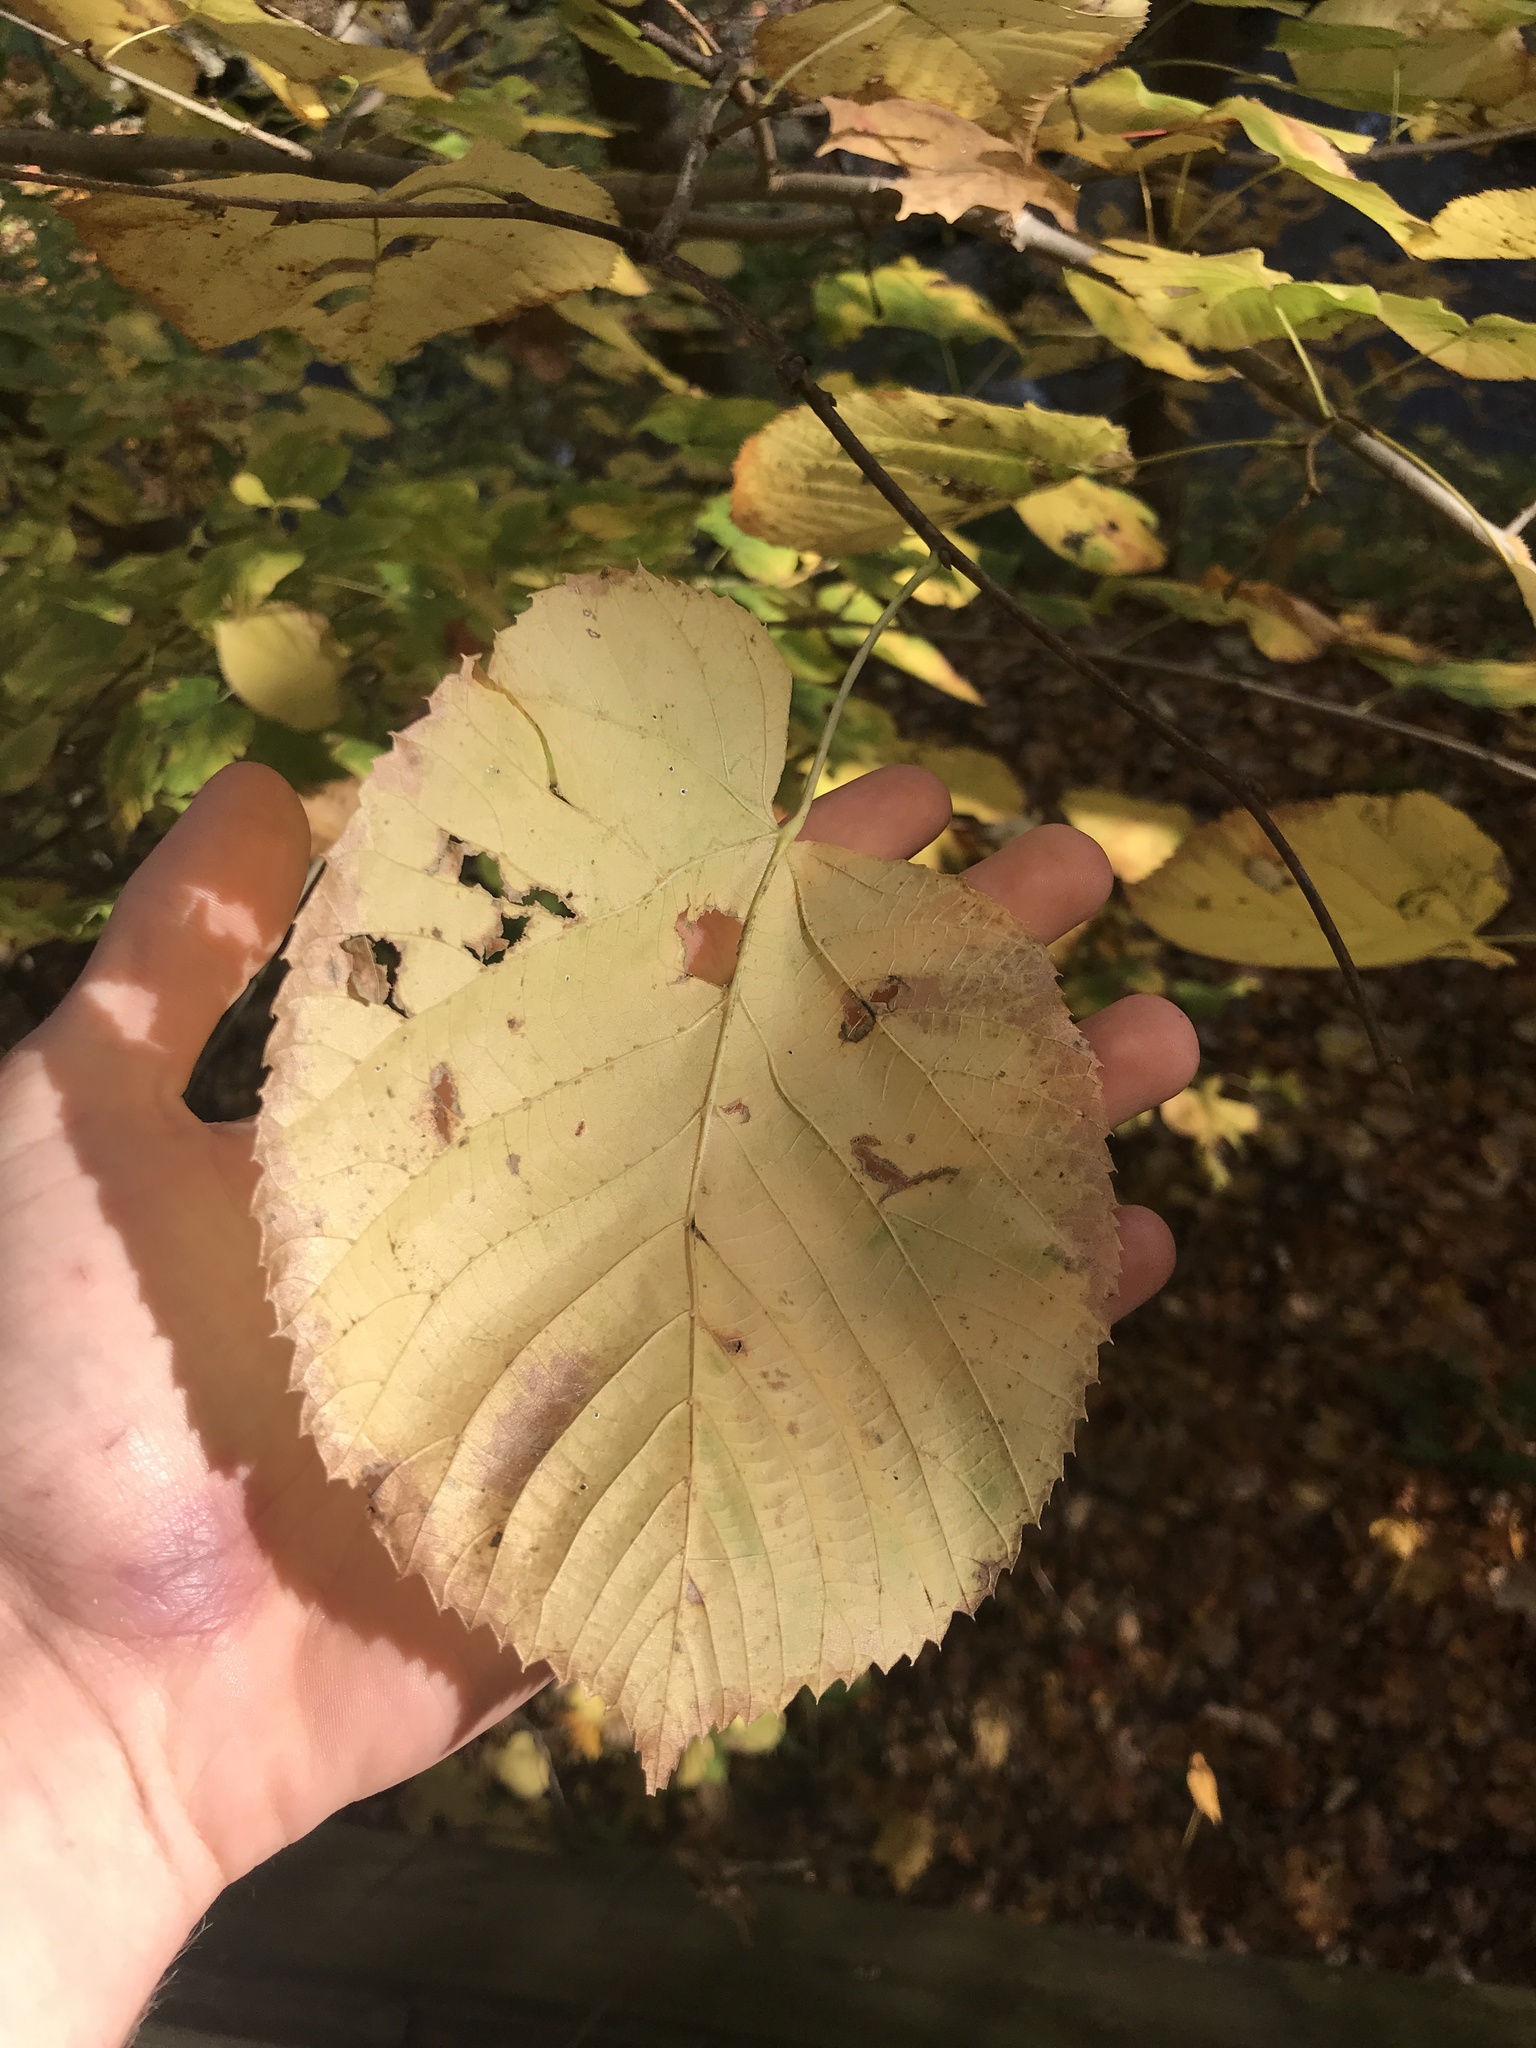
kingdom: Plantae
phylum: Tracheophyta
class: Magnoliopsida
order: Malvales
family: Malvaceae
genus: Tilia
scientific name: Tilia americana
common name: Basswood
